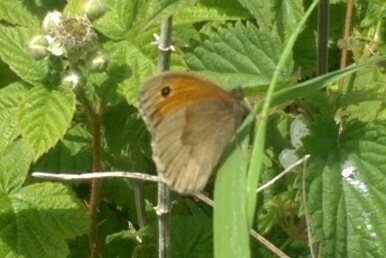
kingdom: Animalia
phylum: Arthropoda
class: Insecta
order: Lepidoptera
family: Nymphalidae
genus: Maniola
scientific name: Maniola jurtina
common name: Meadow brown
